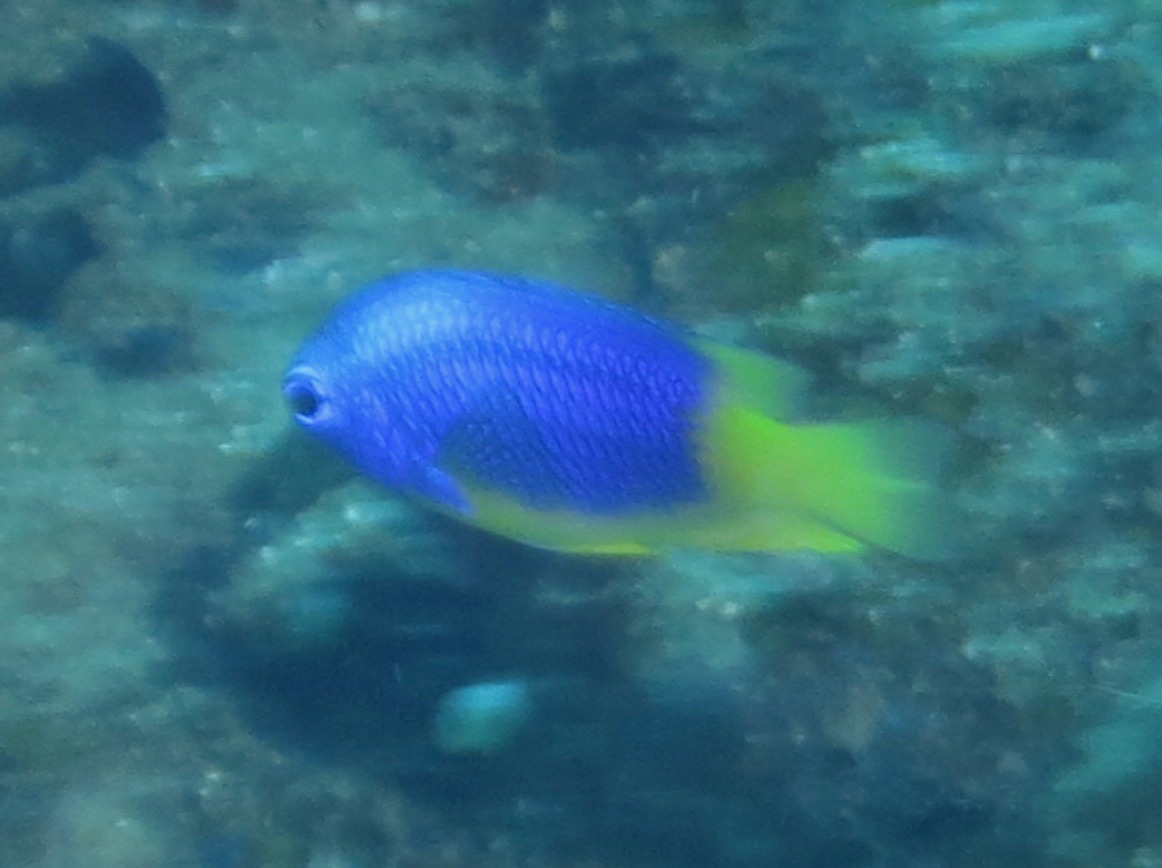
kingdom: Animalia
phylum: Chordata
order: Perciformes
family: Pomacentridae
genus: Pomacentrus
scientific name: Pomacentrus caeruleus
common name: Caerulean damsel
